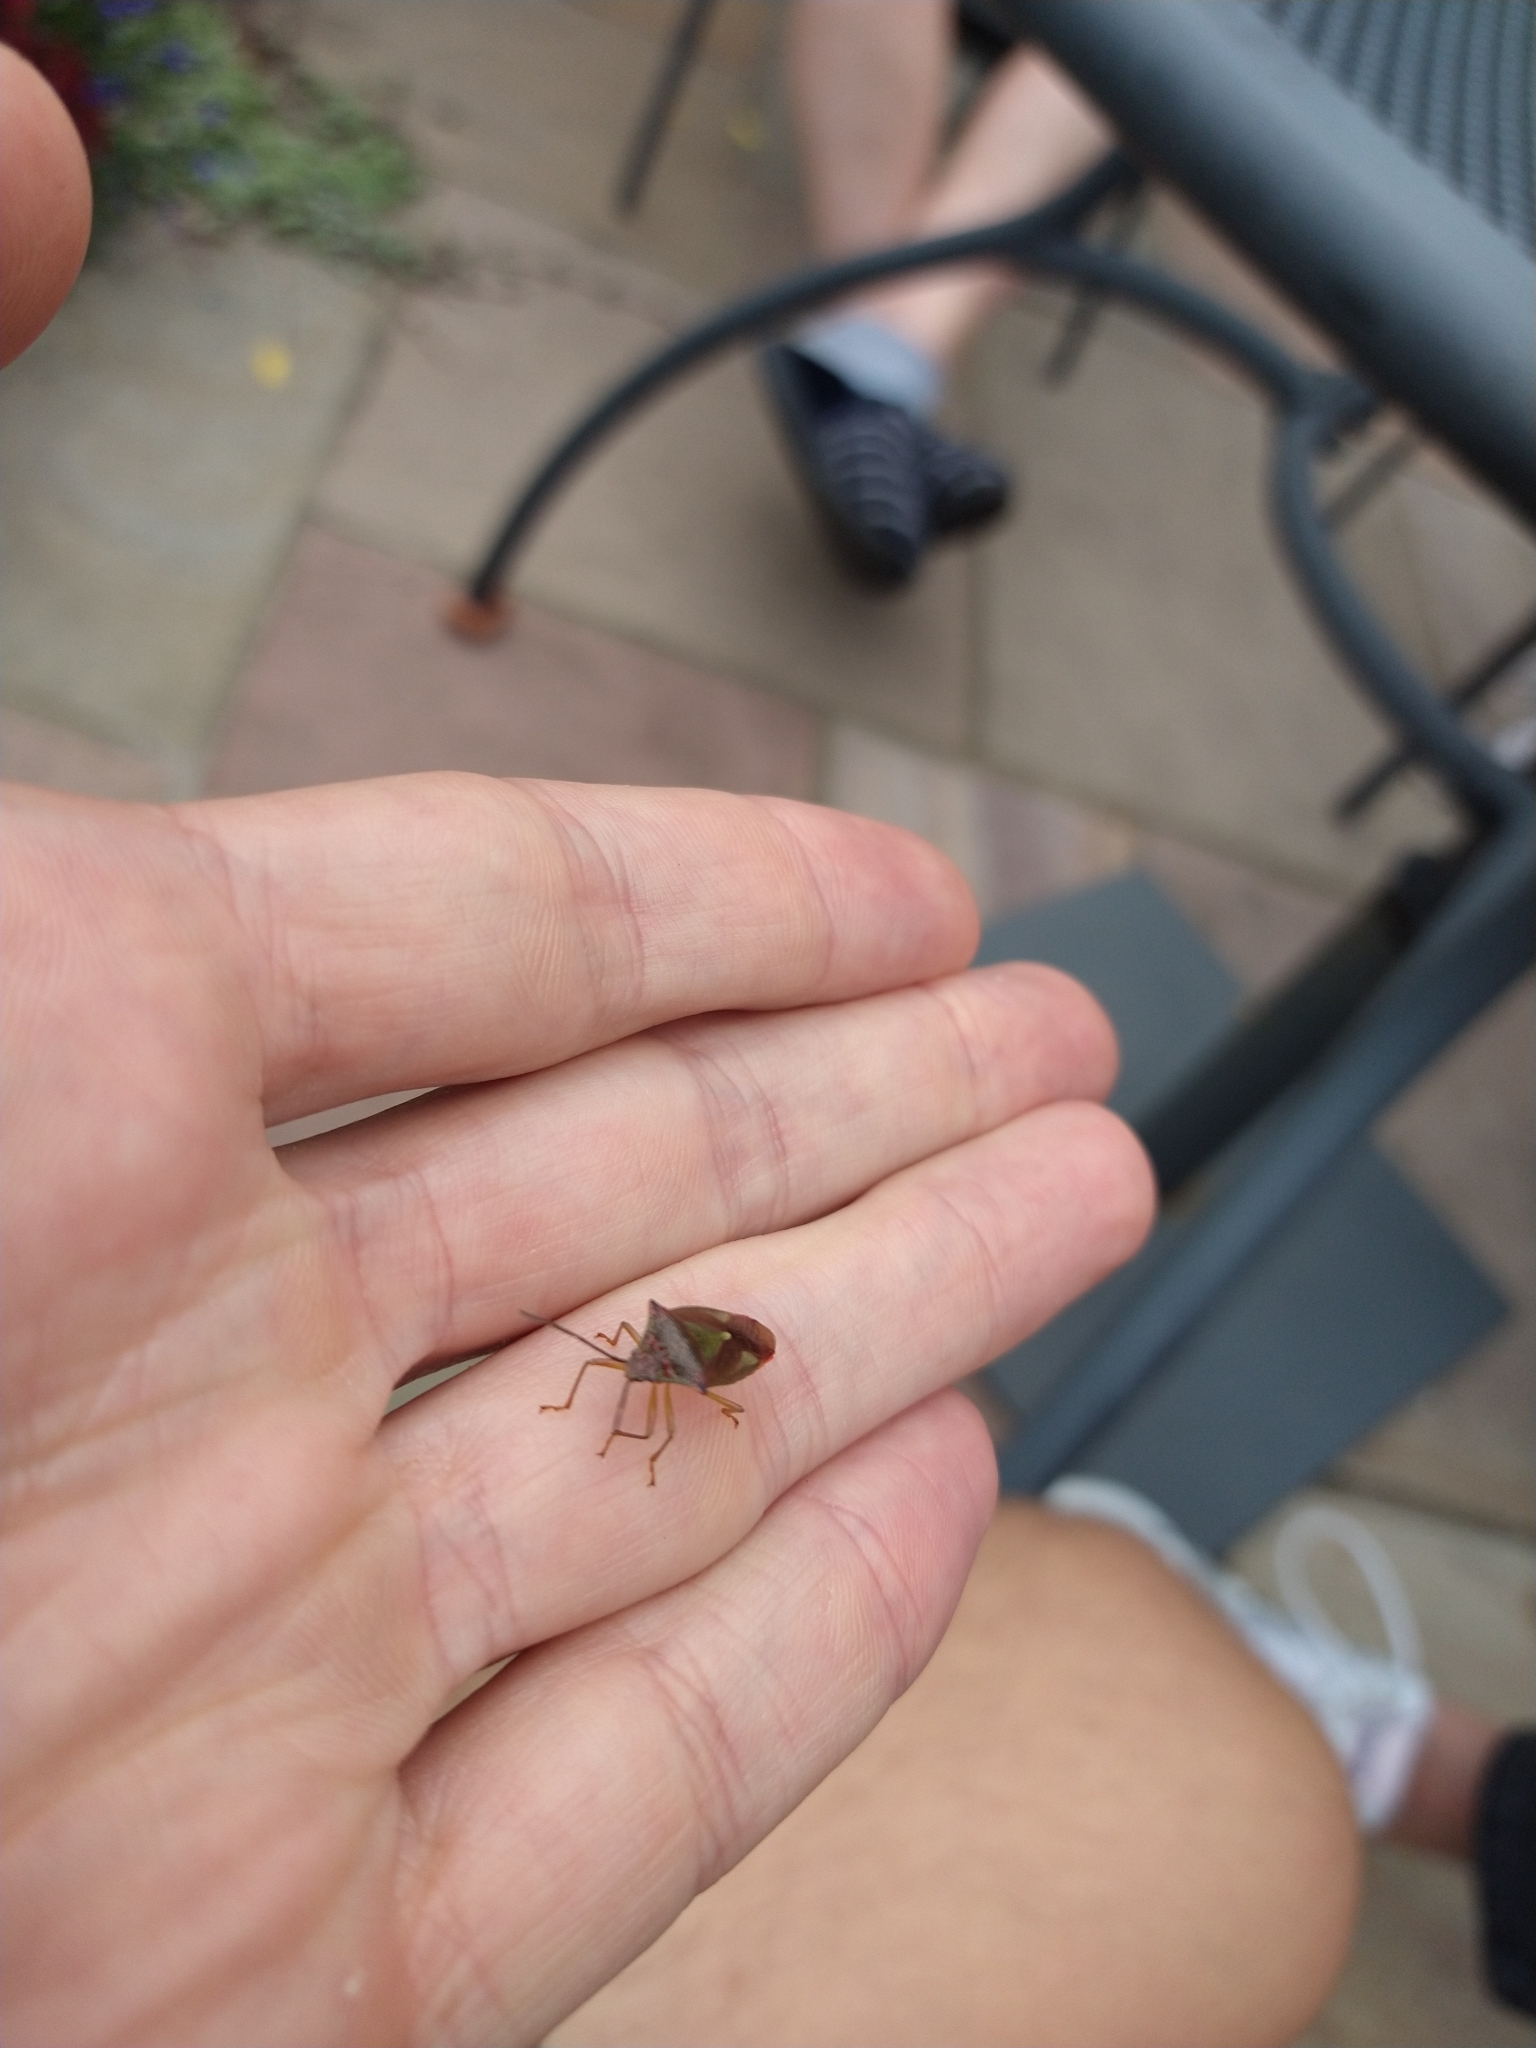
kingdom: Animalia
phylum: Arthropoda
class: Insecta
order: Hemiptera
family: Acanthosomatidae
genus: Acanthosoma
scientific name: Acanthosoma haemorrhoidale
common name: Hawthorn shieldbug
